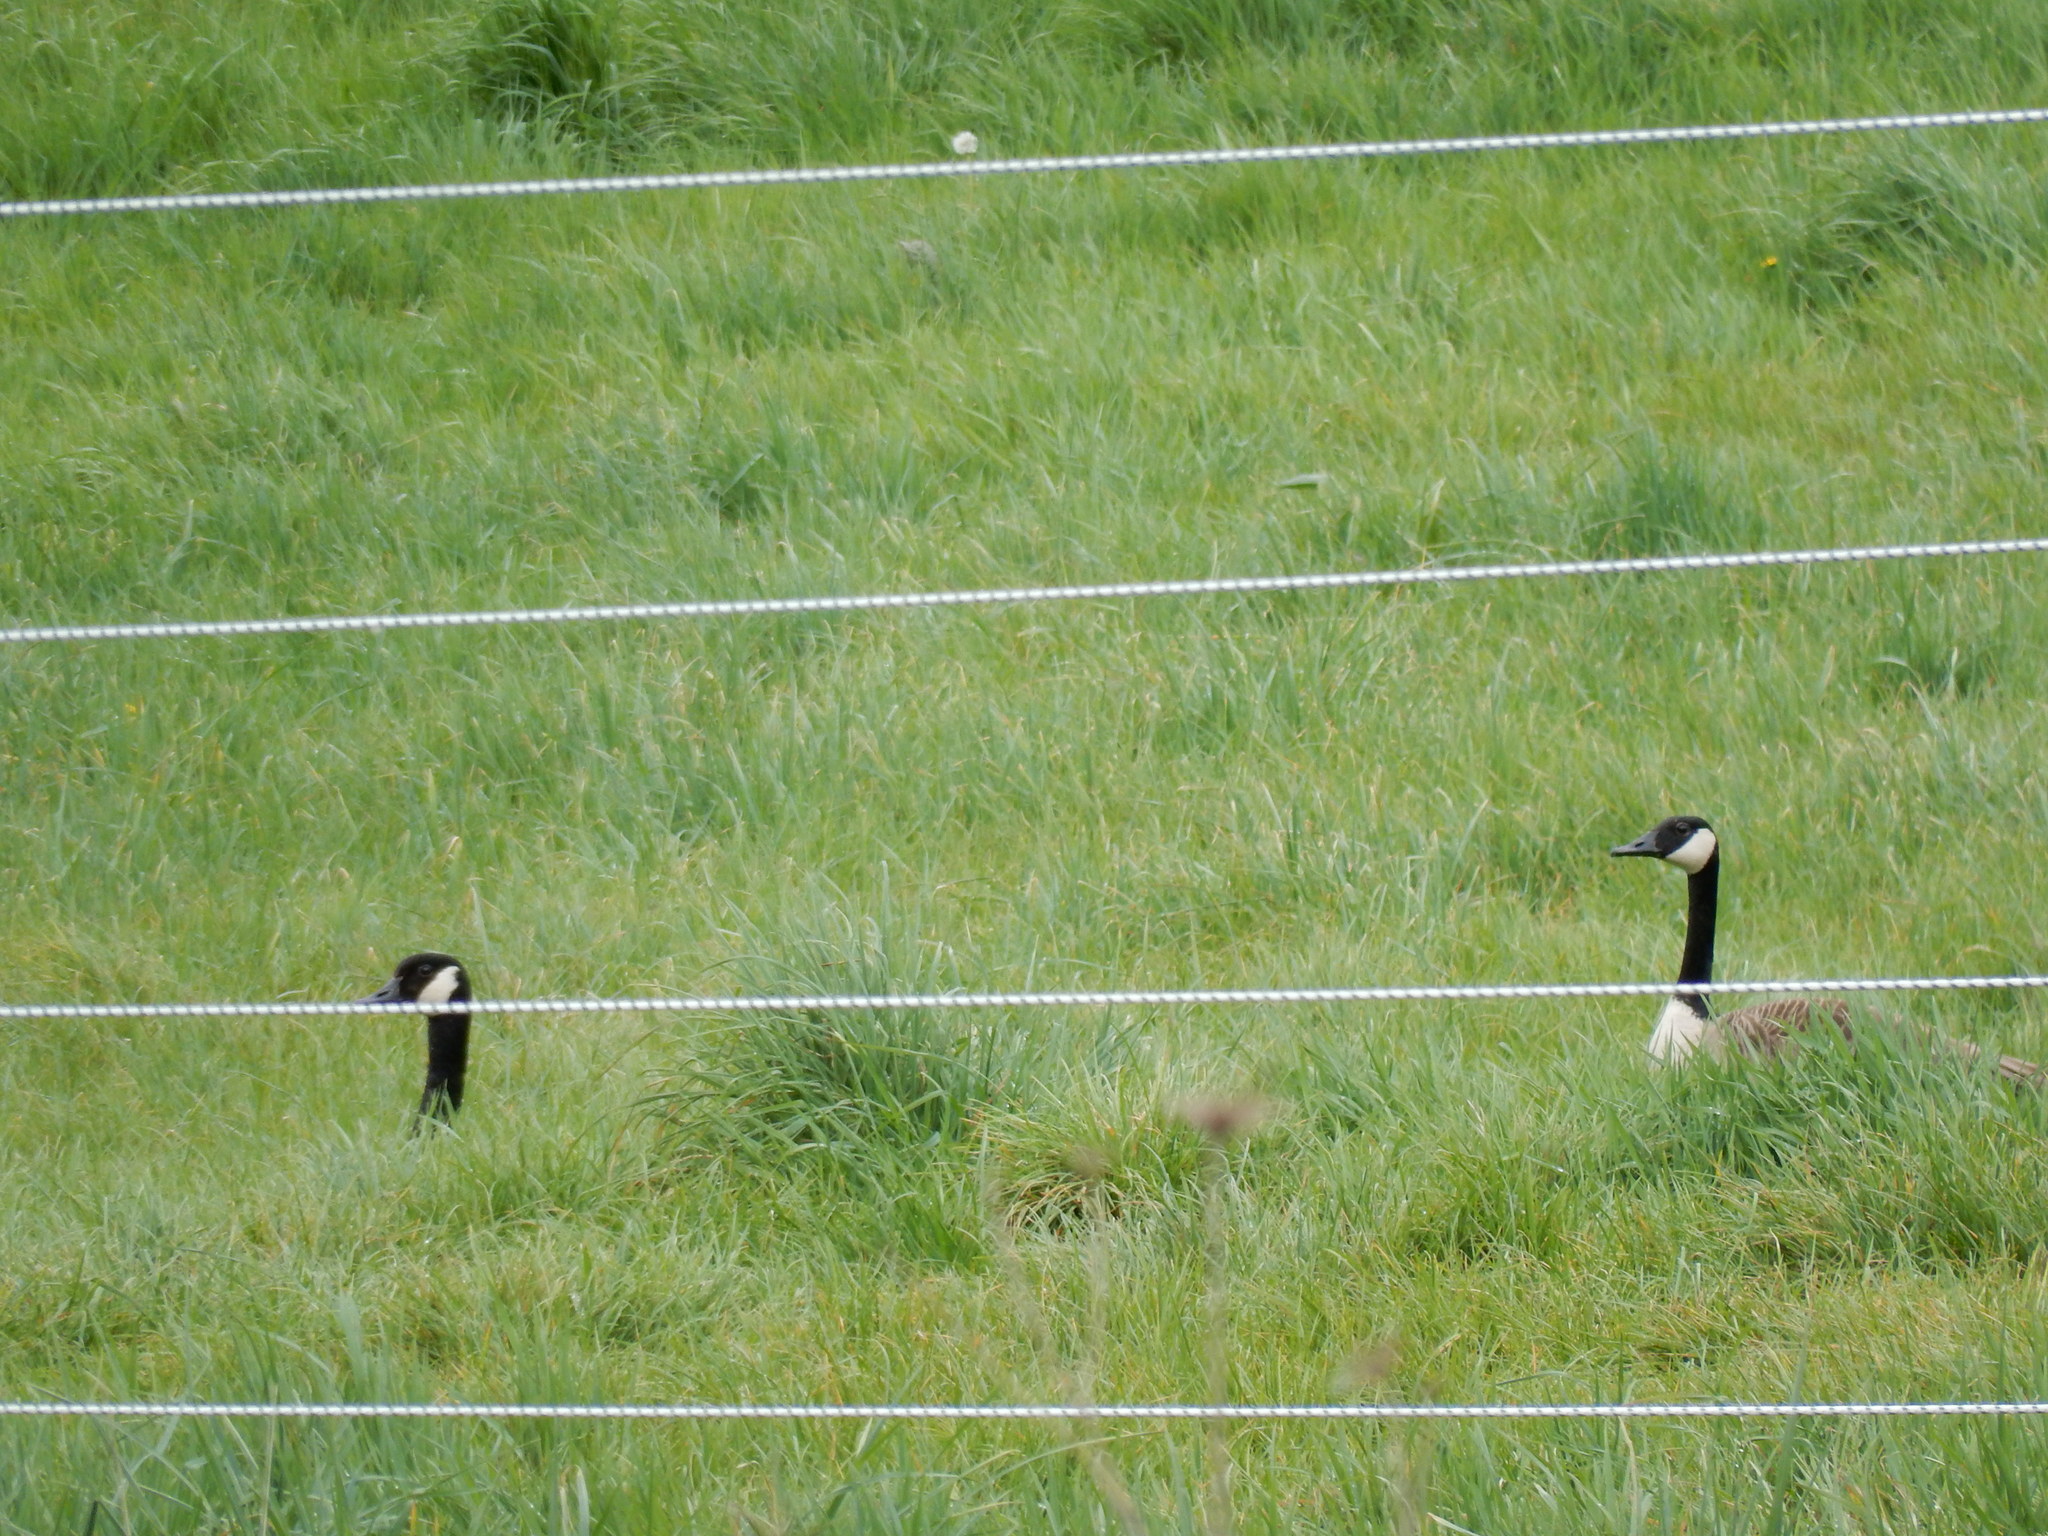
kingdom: Animalia
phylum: Chordata
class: Aves
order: Anseriformes
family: Anatidae
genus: Branta
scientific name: Branta canadensis
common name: Canada goose
